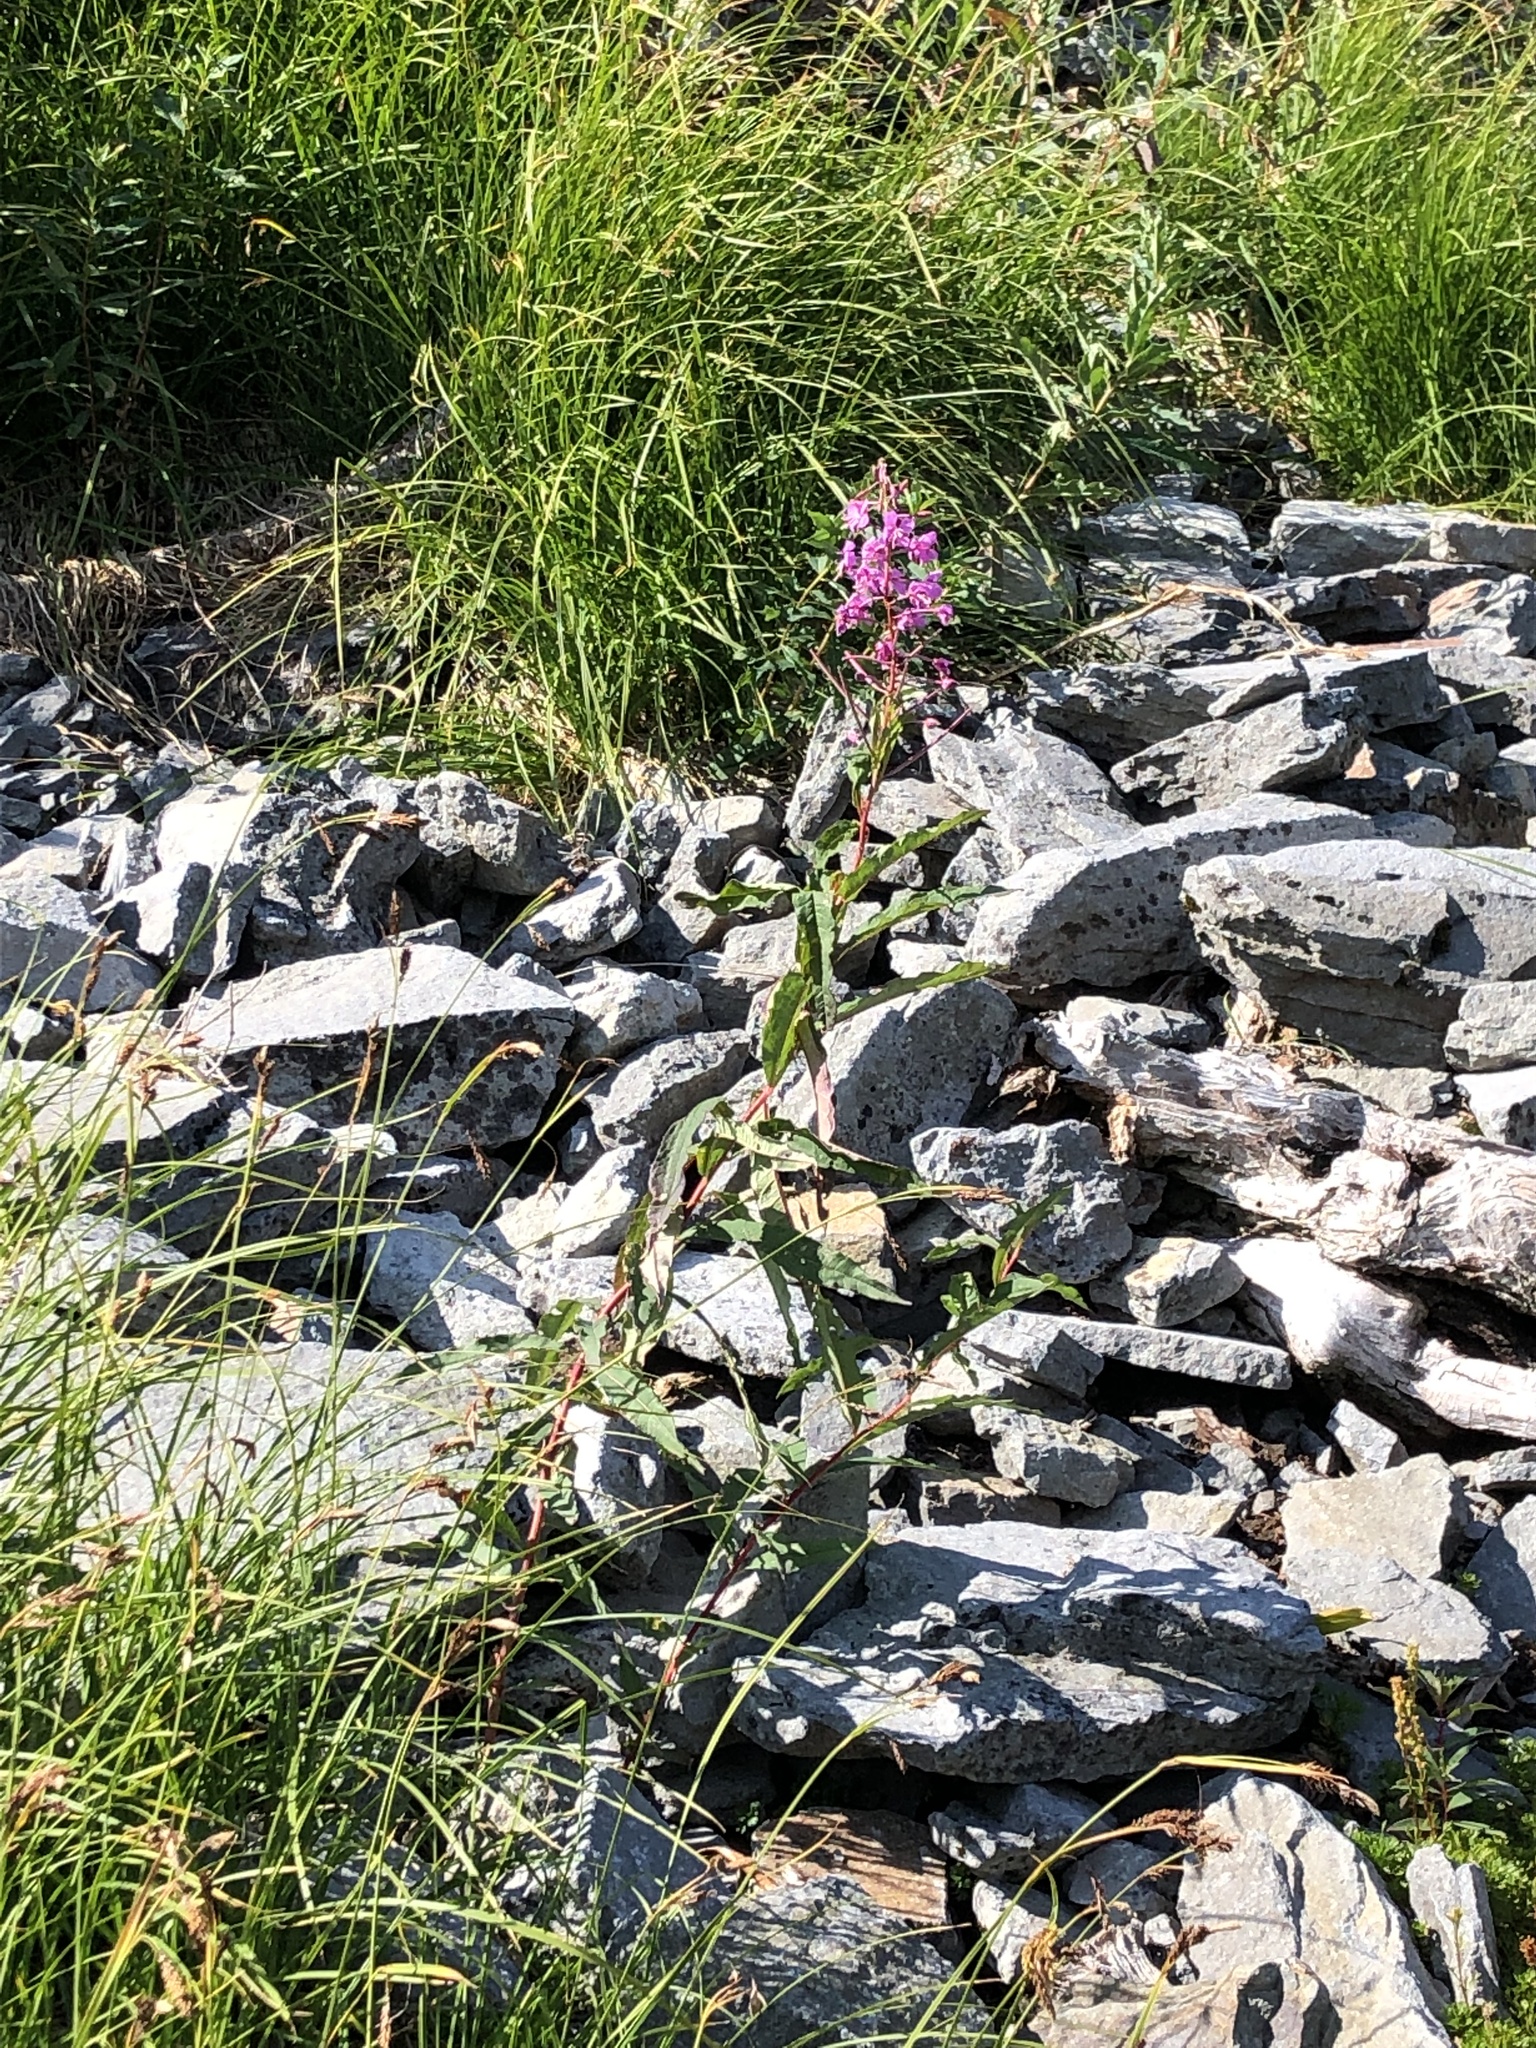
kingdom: Plantae
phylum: Tracheophyta
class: Magnoliopsida
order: Myrtales
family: Onagraceae
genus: Chamaenerion
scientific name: Chamaenerion angustifolium
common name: Fireweed
